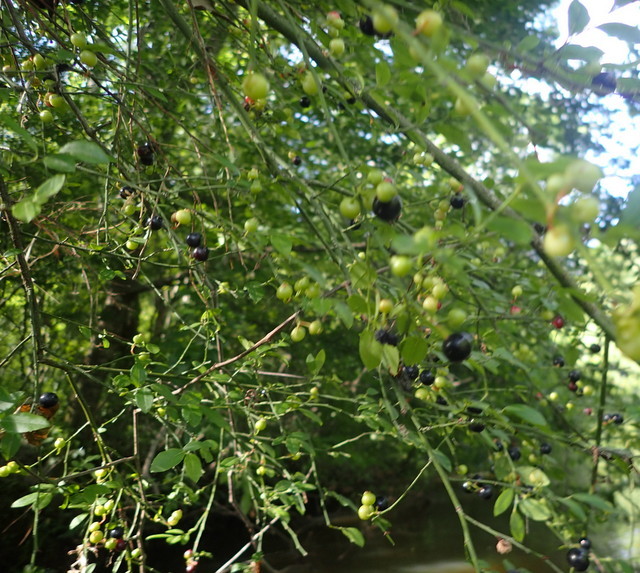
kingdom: Plantae
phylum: Tracheophyta
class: Magnoliopsida
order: Ericales
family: Ericaceae
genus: Vaccinium
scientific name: Vaccinium corymbosum
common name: Blueberry
